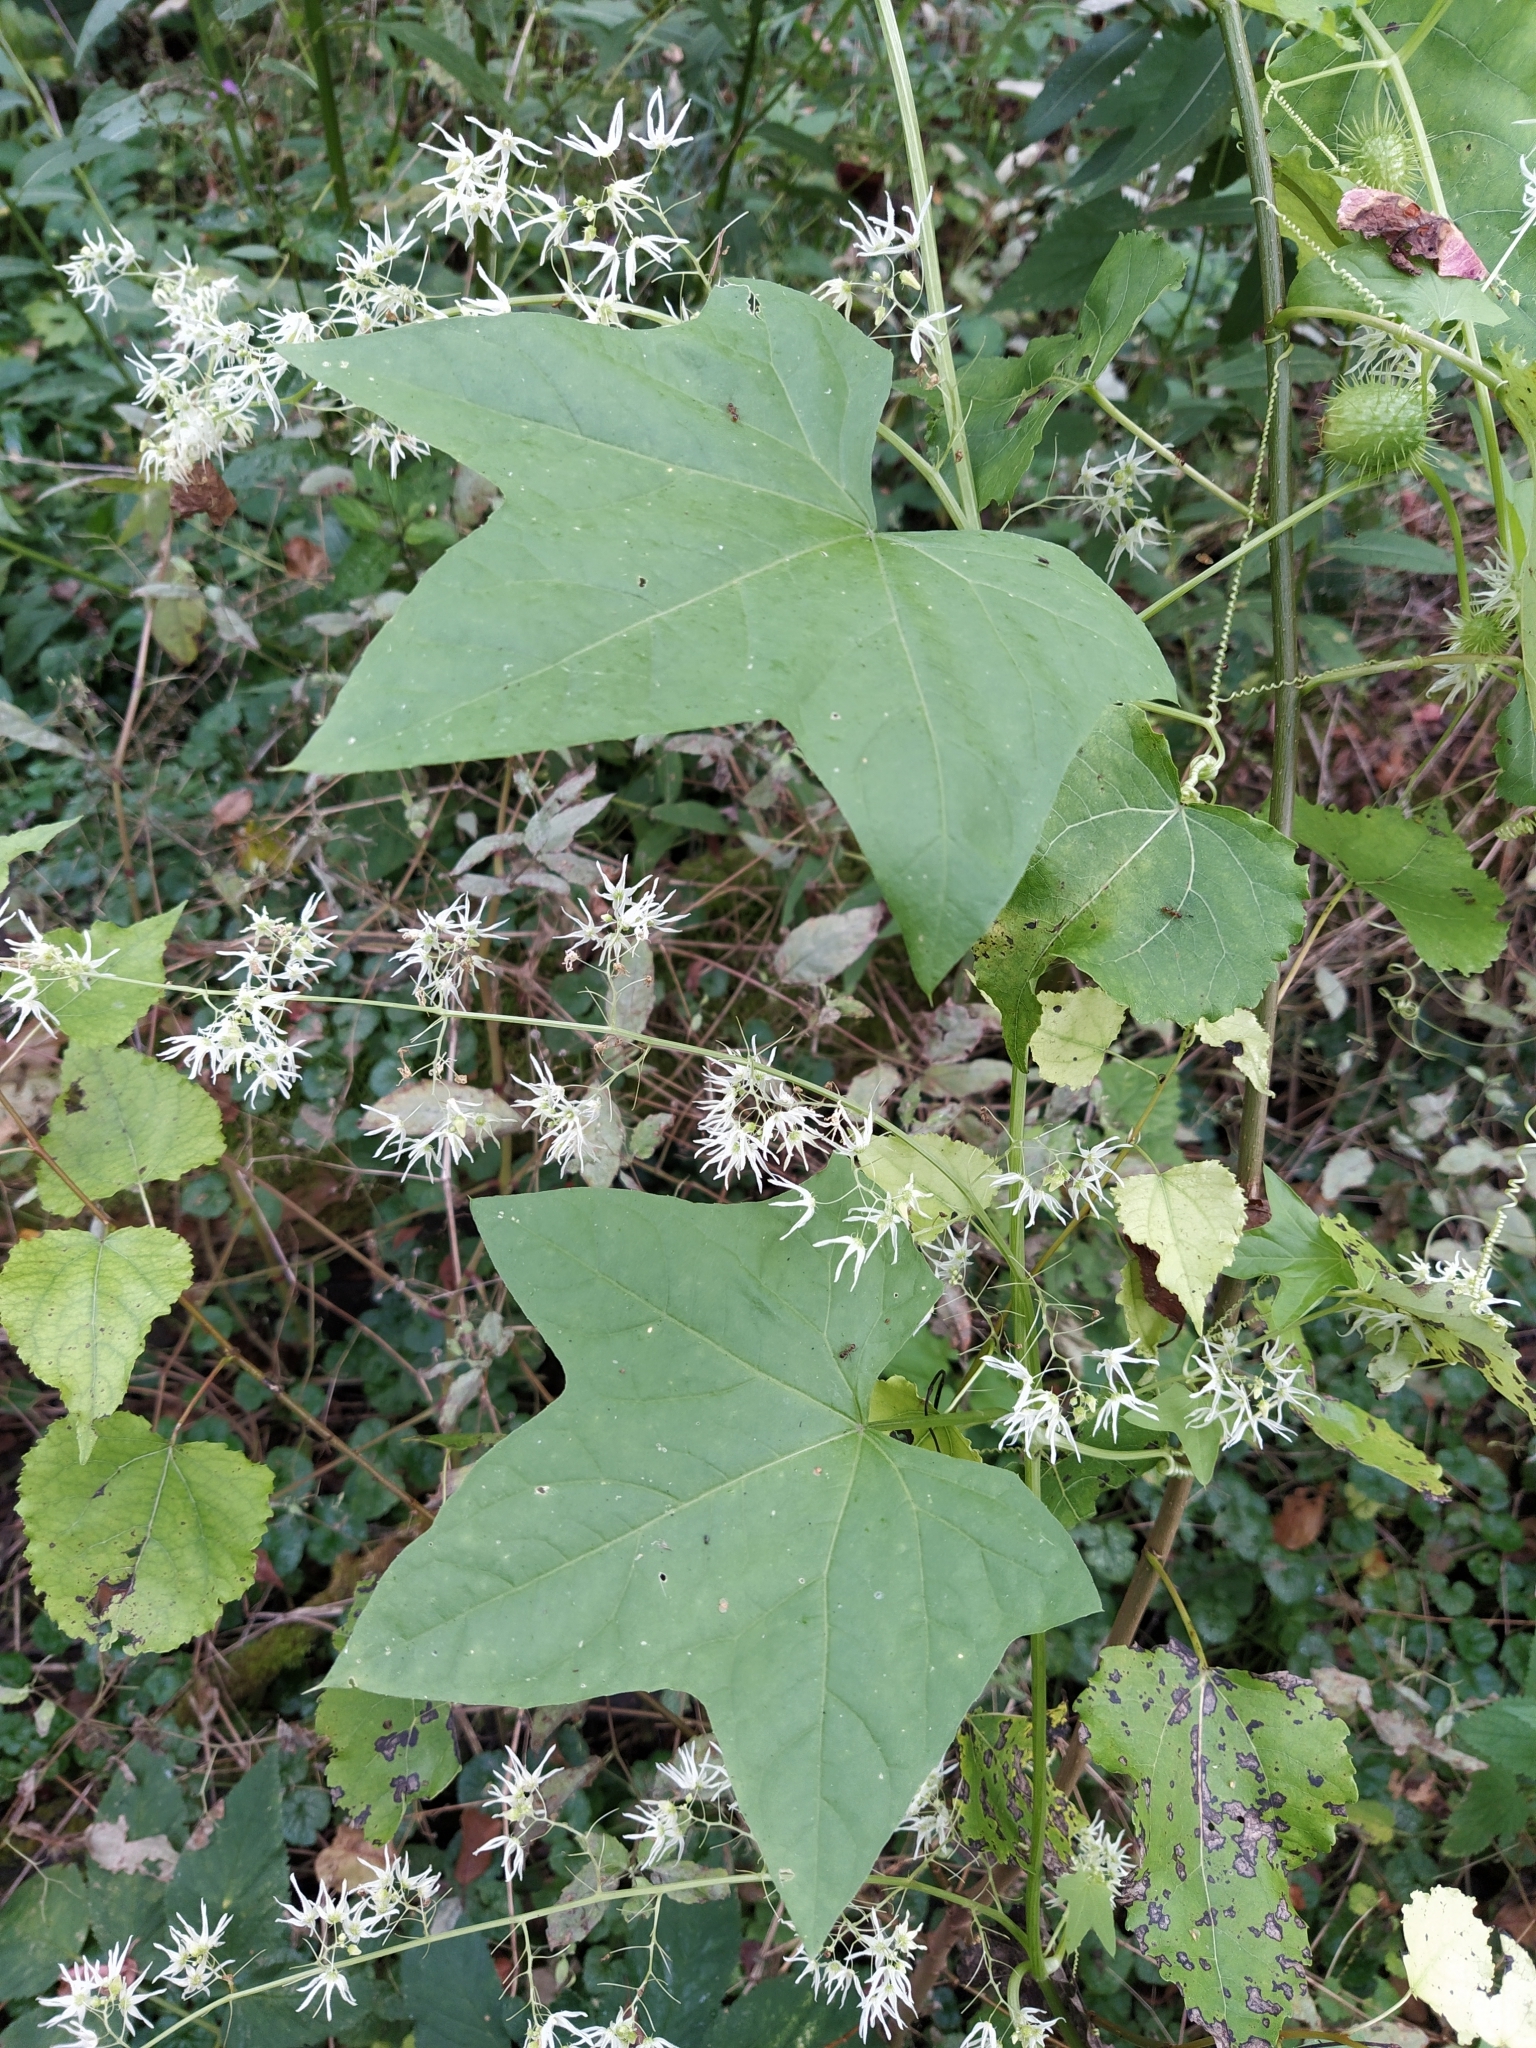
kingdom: Plantae
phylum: Tracheophyta
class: Magnoliopsida
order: Cucurbitales
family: Cucurbitaceae
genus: Echinocystis
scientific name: Echinocystis lobata
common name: Wild cucumber
